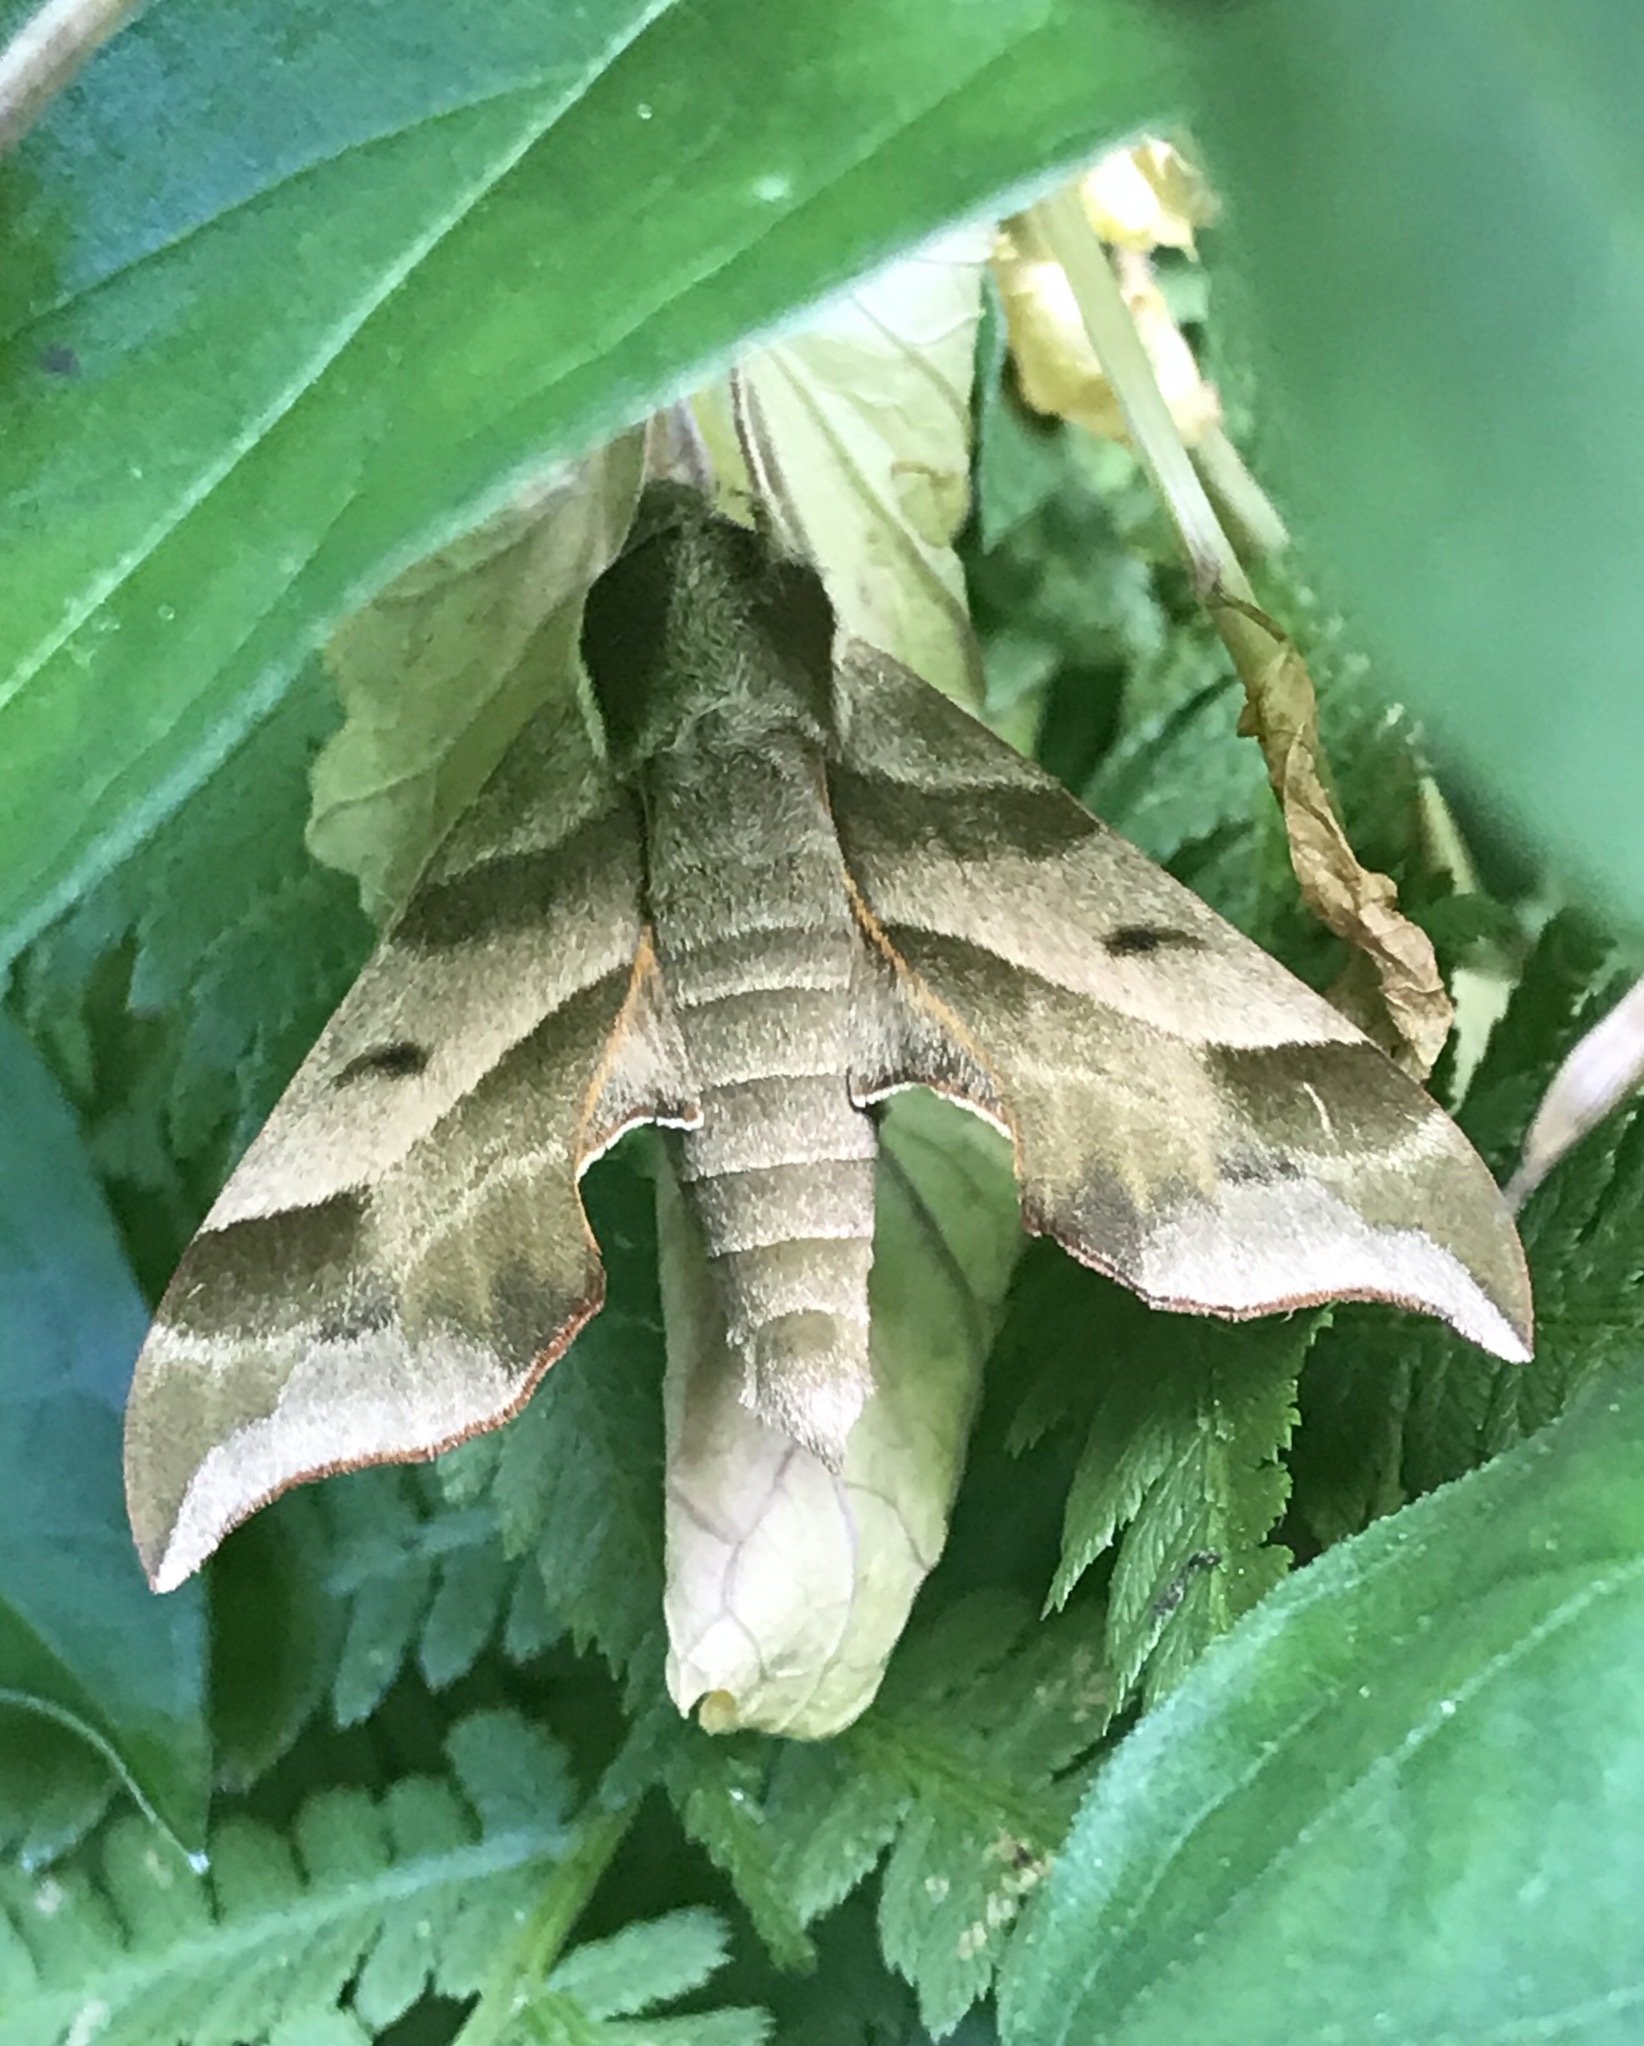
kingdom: Animalia
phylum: Arthropoda
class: Insecta
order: Lepidoptera
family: Sphingidae
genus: Darapsa
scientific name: Darapsa myron
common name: Hog sphinx
